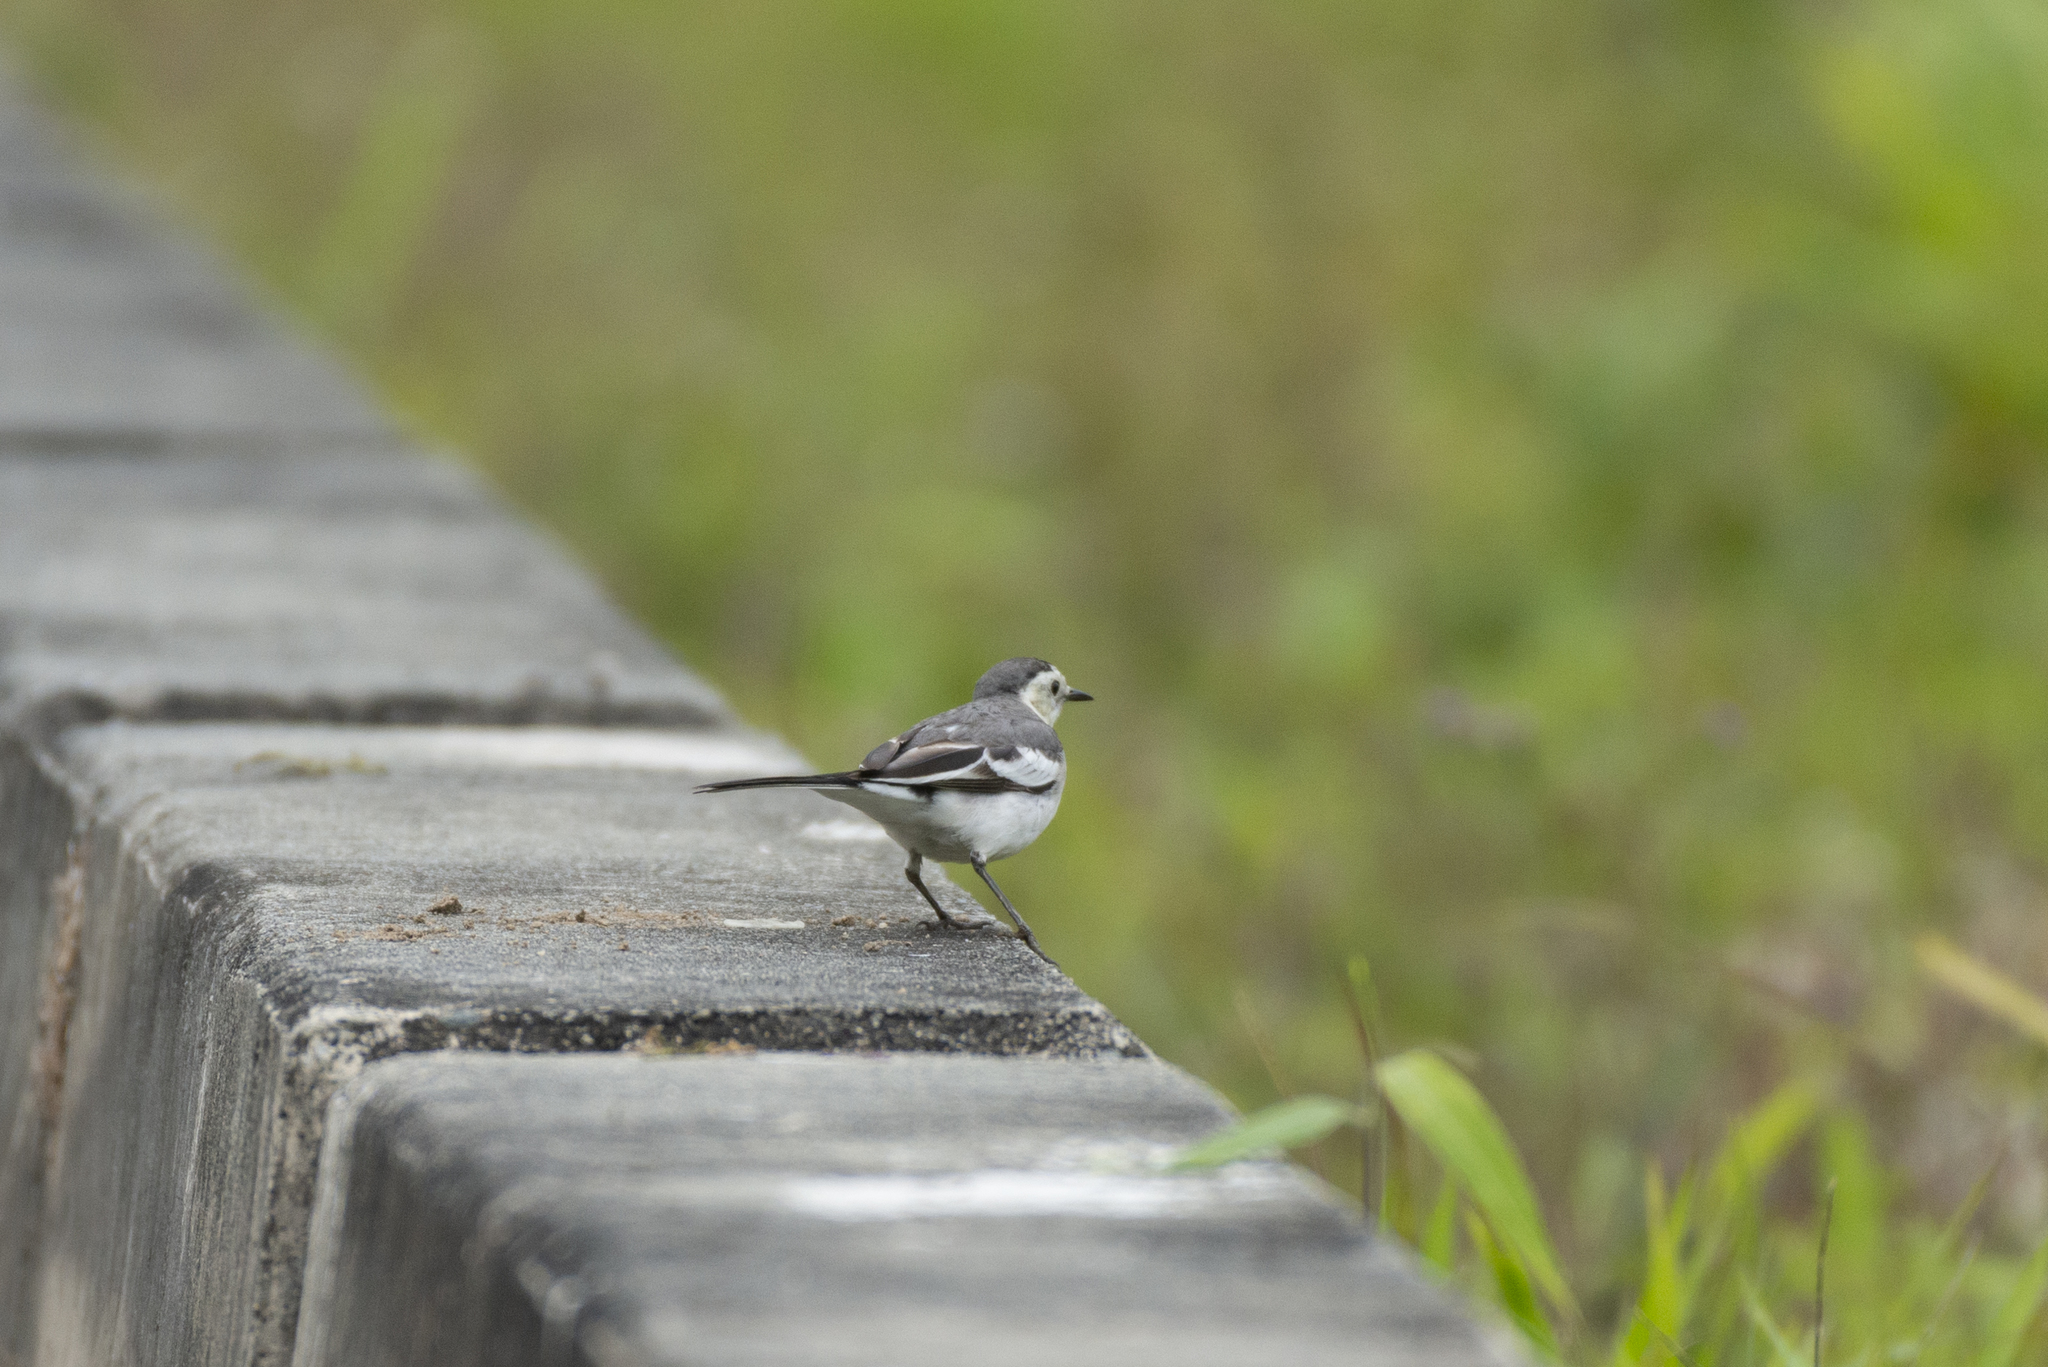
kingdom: Animalia
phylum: Chordata
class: Aves
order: Passeriformes
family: Motacillidae
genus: Motacilla
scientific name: Motacilla alba
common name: White wagtail
